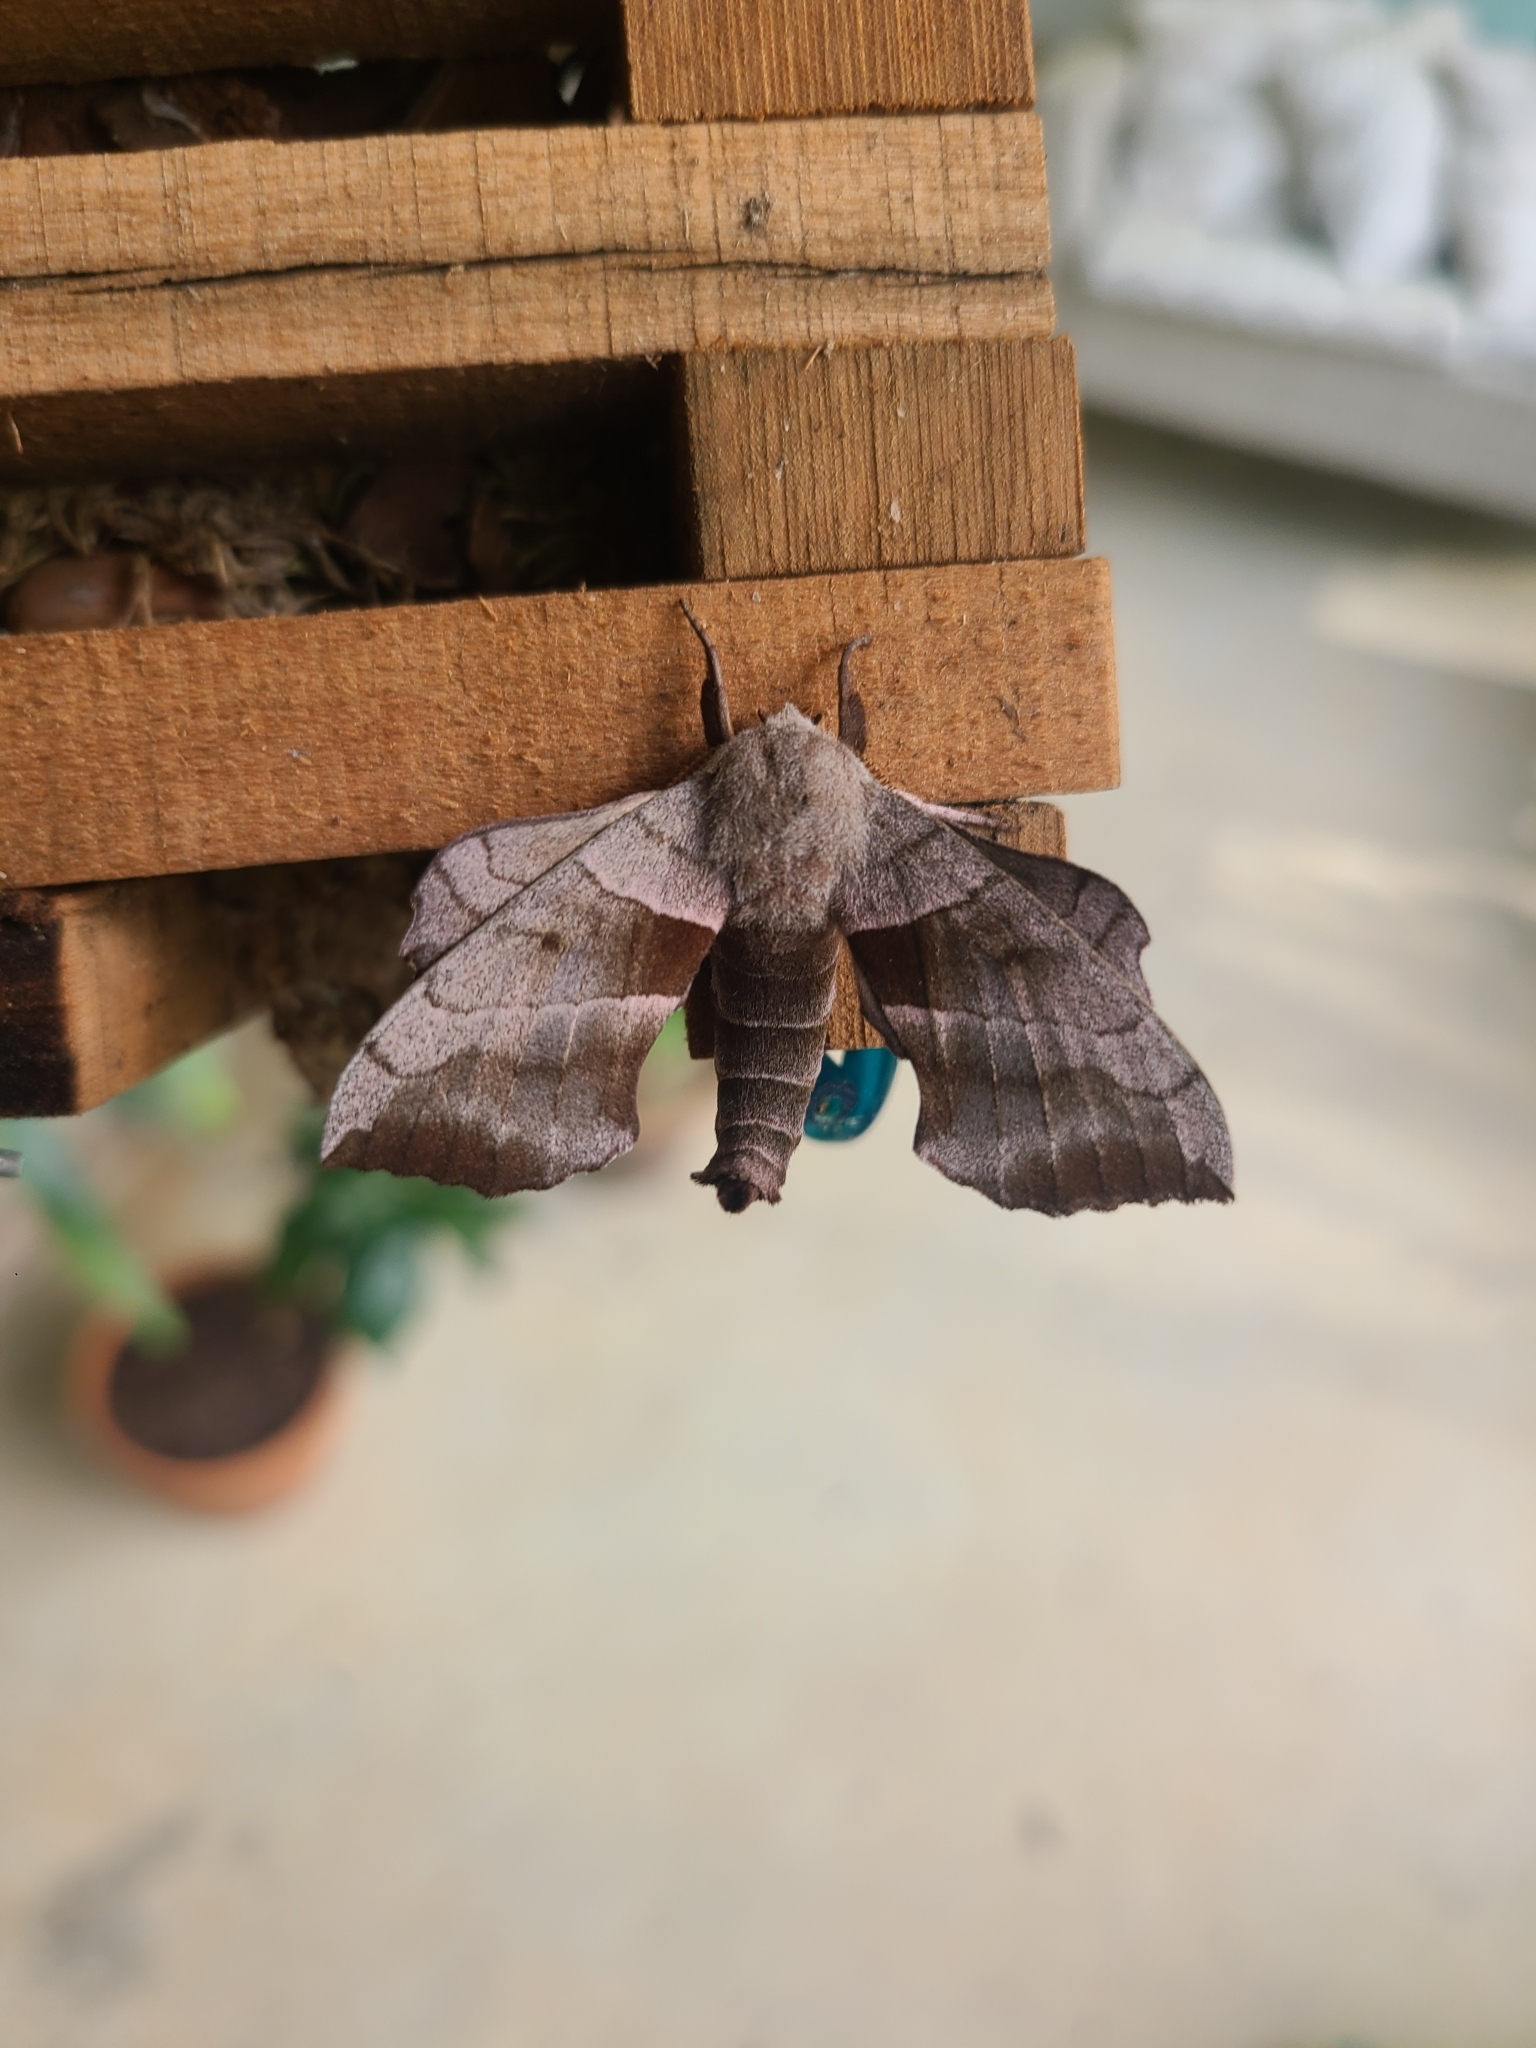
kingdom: Animalia
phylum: Arthropoda
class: Insecta
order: Lepidoptera
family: Sphingidae
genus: Amorpha
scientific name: Amorpha juglandis
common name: Walnut sphinx
